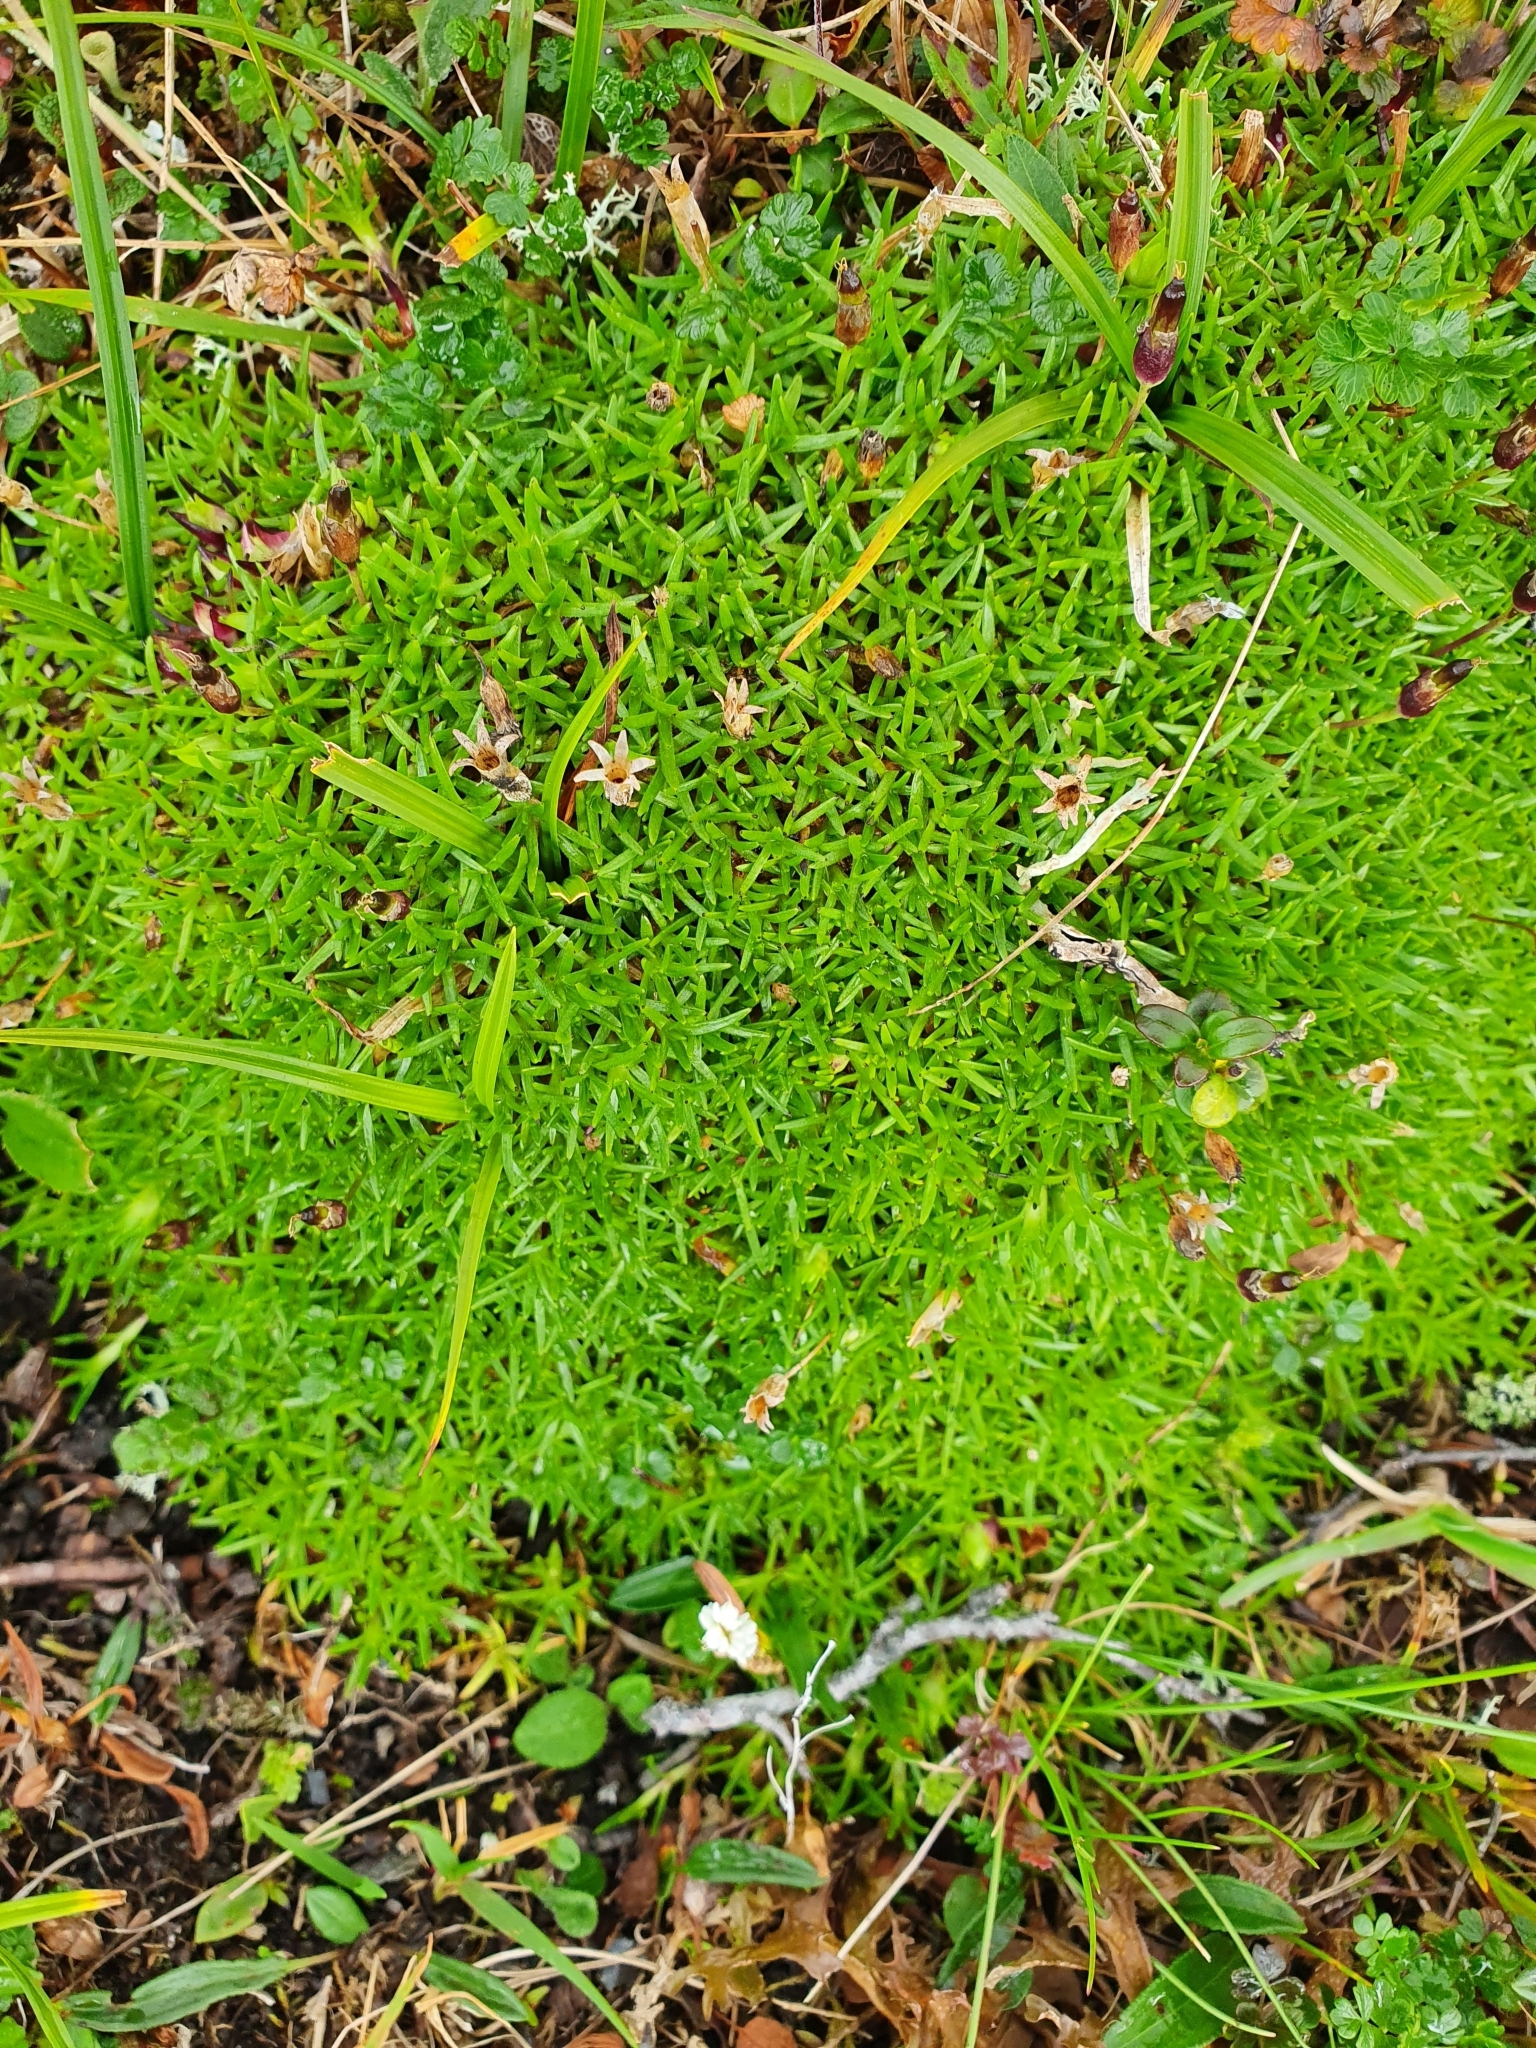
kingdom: Plantae
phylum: Tracheophyta
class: Magnoliopsida
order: Caryophyllales
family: Caryophyllaceae
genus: Silene
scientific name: Silene acaulis
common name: Moss campion
